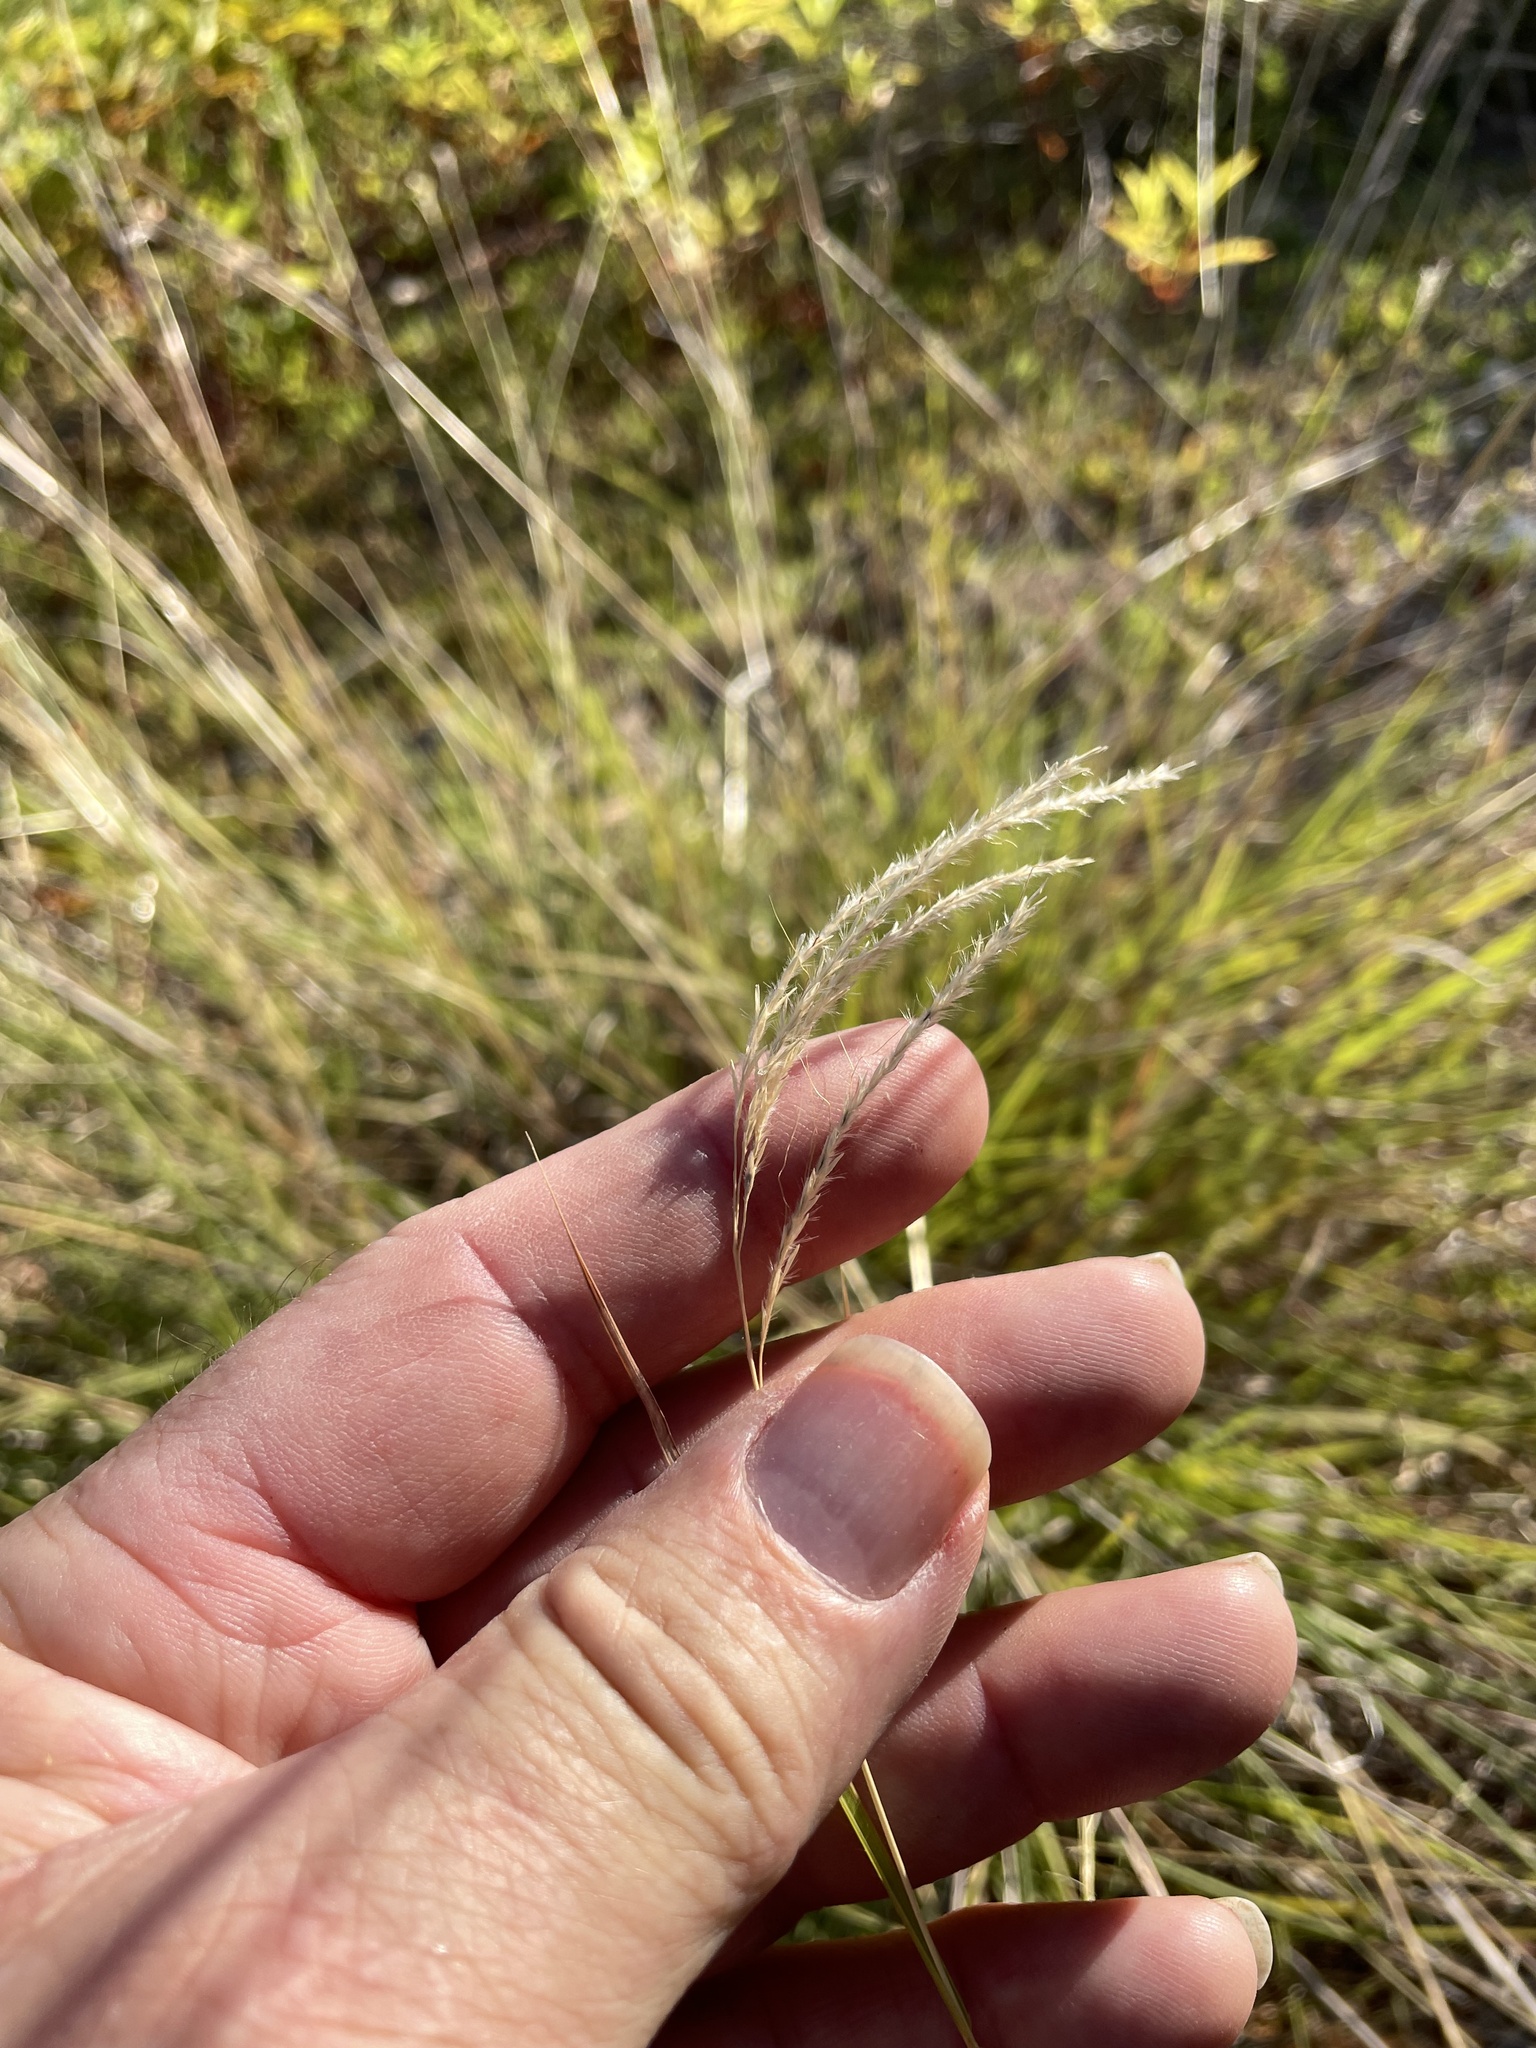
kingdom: Plantae
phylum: Tracheophyta
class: Liliopsida
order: Poales
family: Poaceae
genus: Bothriochloa
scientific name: Bothriochloa ischaemum
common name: Yellow bluestem
